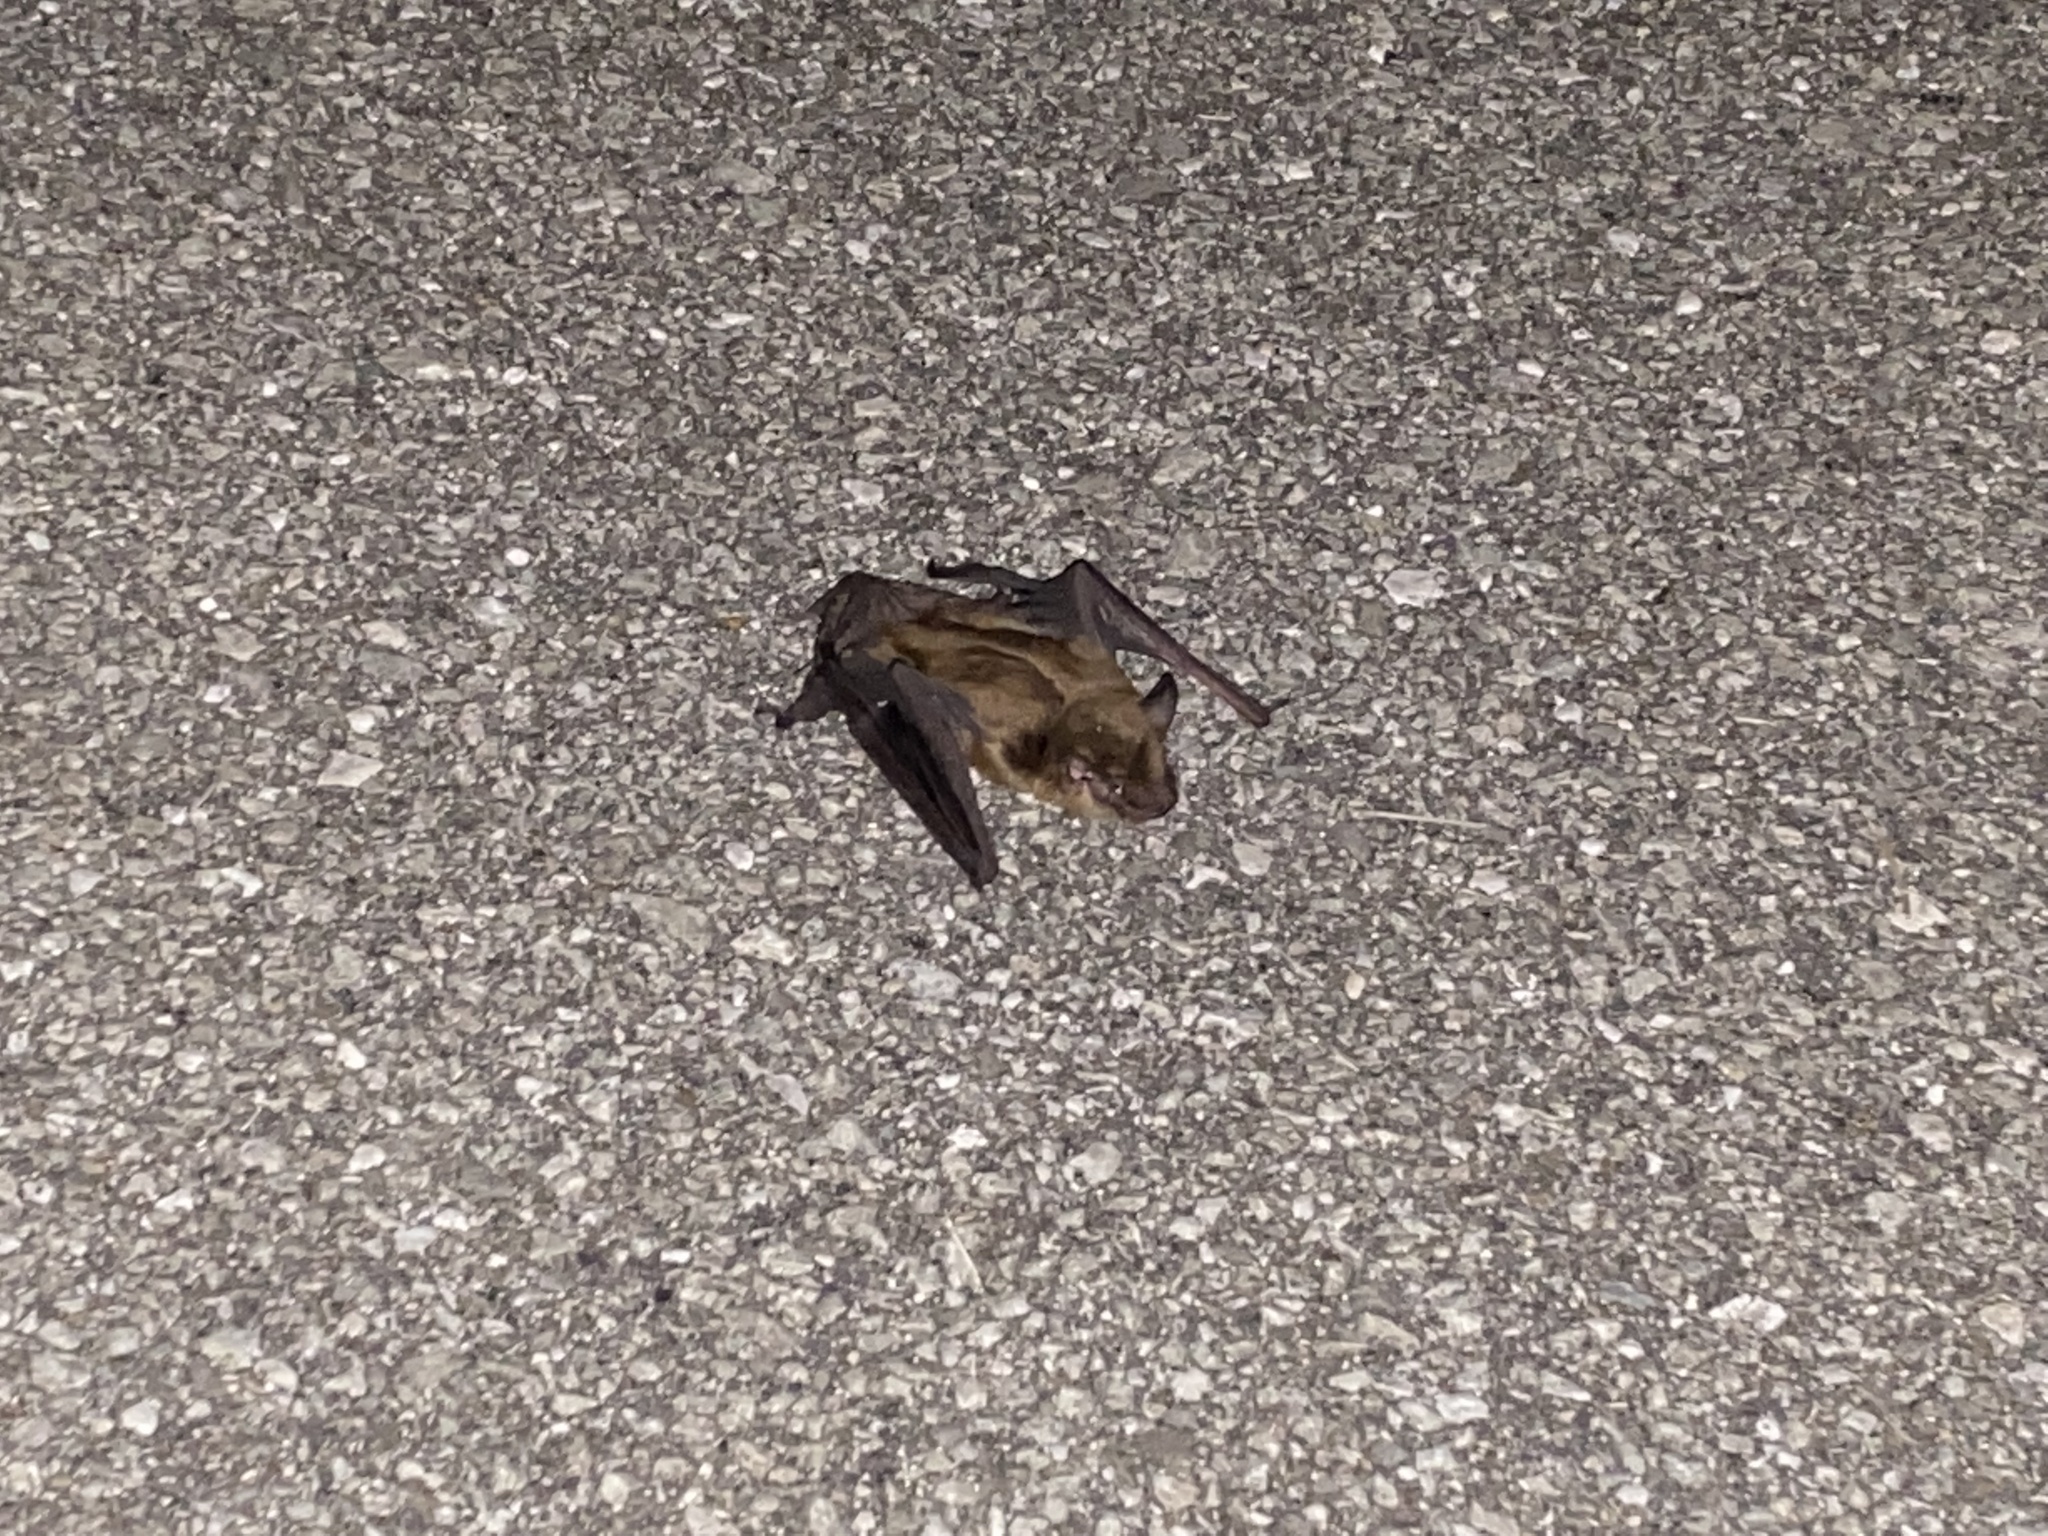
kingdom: Animalia
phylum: Chordata
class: Mammalia
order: Chiroptera
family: Vespertilionidae
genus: Eptesicus
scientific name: Eptesicus fuscus
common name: Big brown bat
